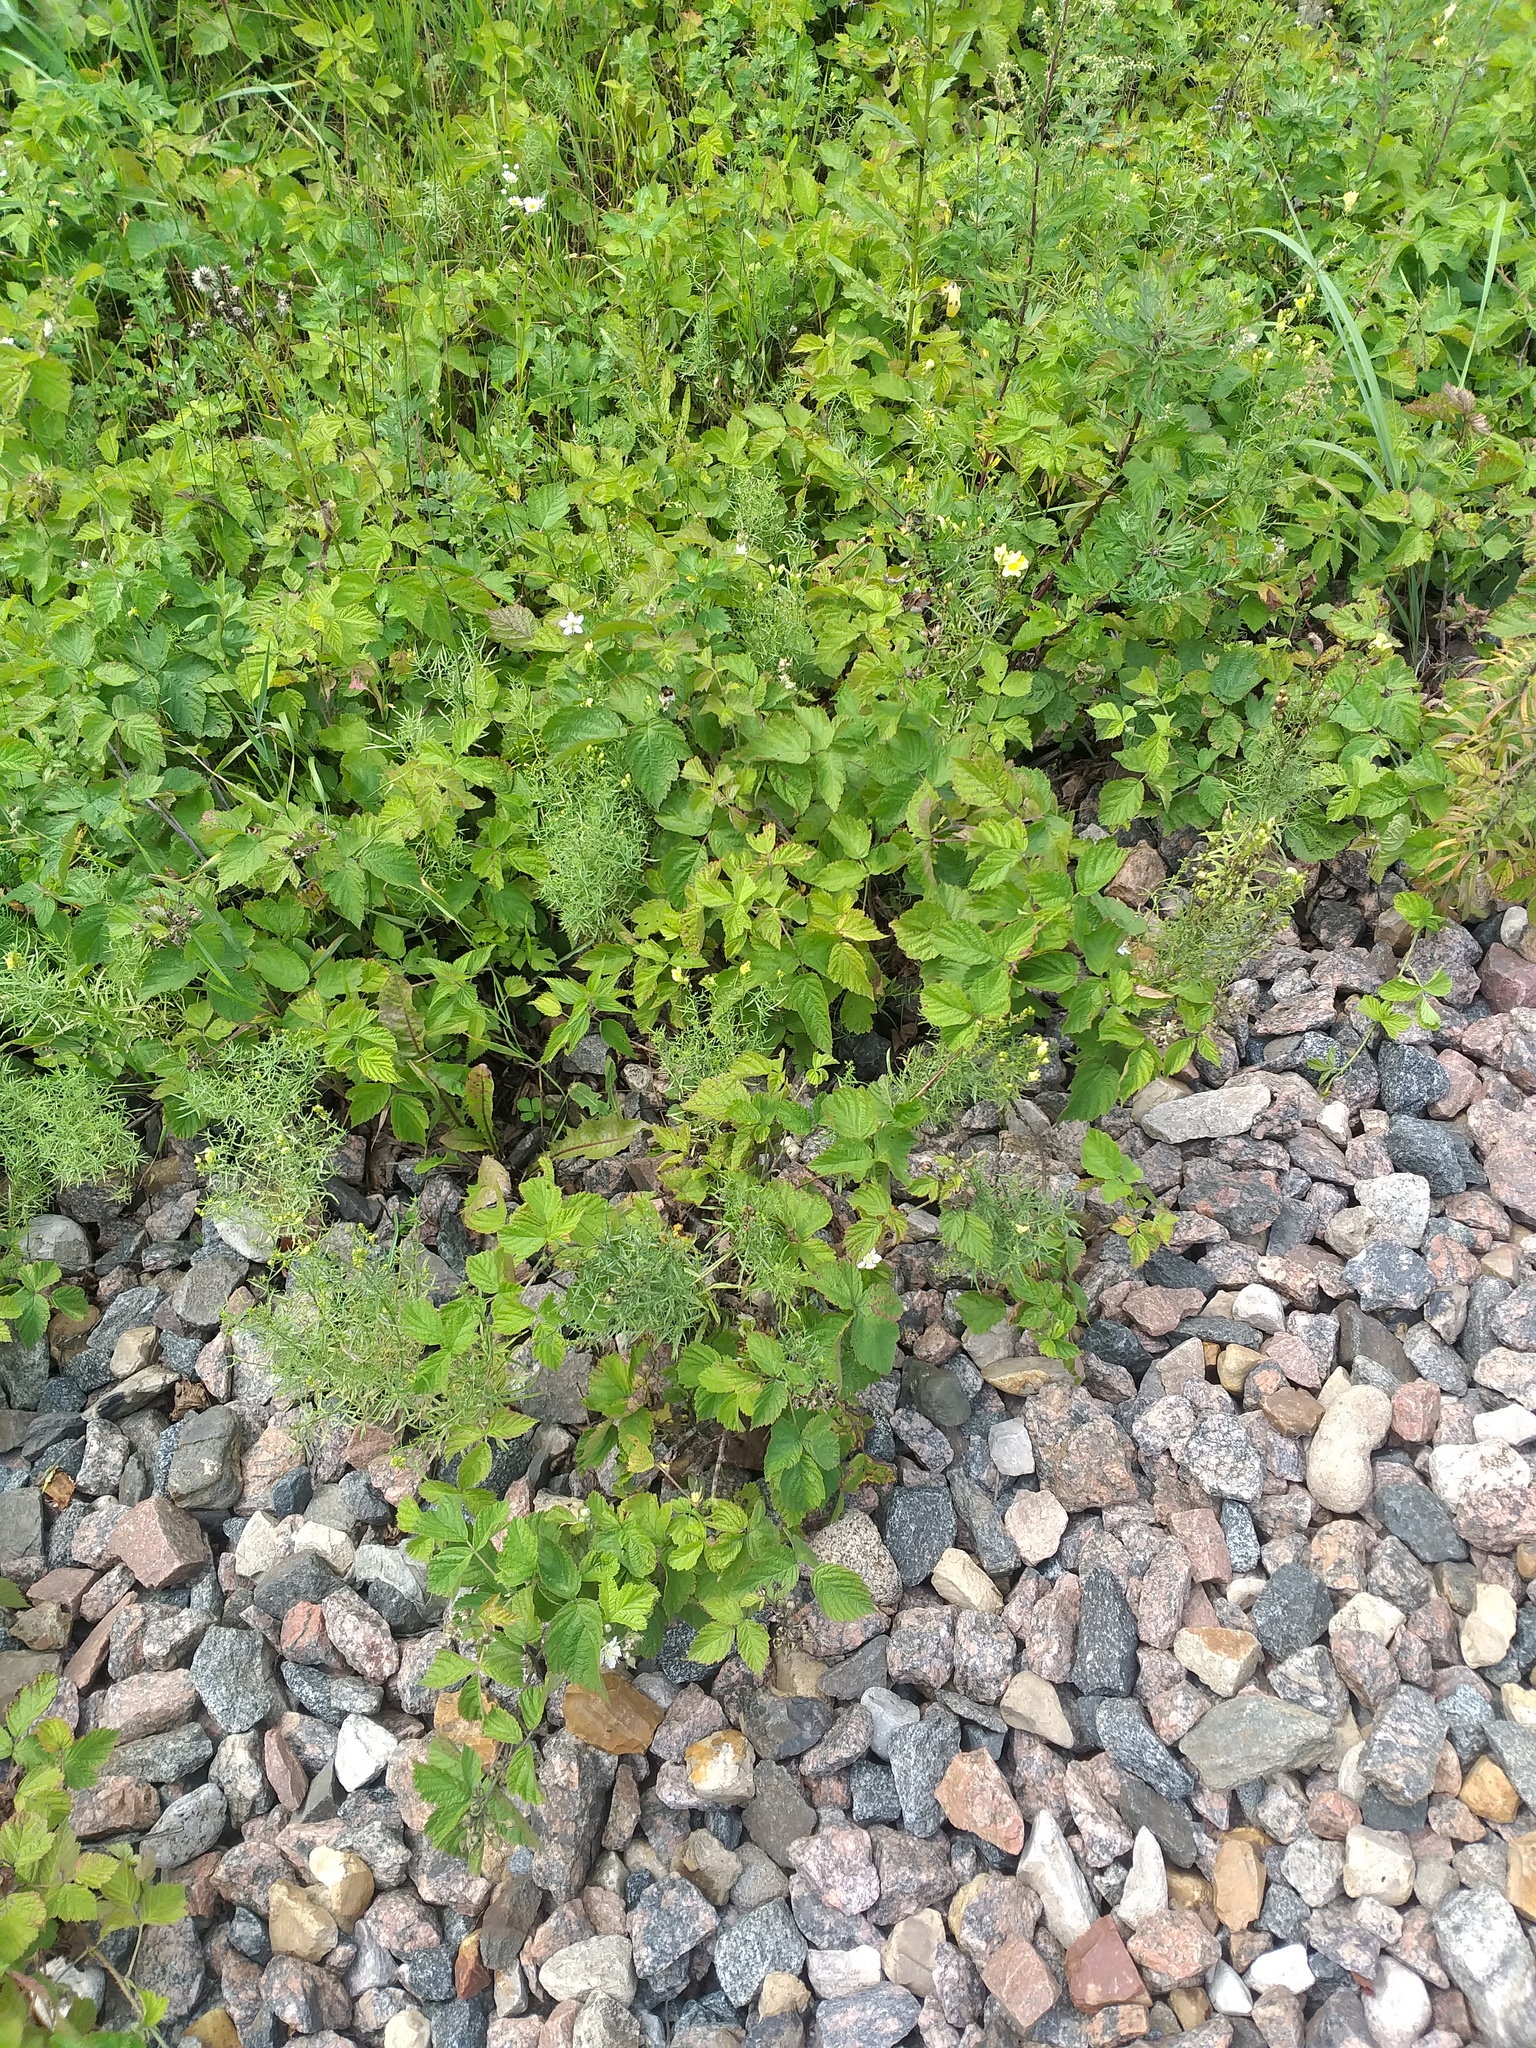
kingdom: Plantae
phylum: Tracheophyta
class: Magnoliopsida
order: Rosales
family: Rosaceae
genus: Rubus
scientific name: Rubus caesius
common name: Dewberry
